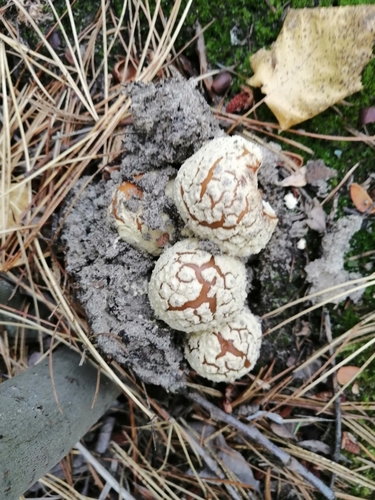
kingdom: Fungi
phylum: Basidiomycota
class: Agaricomycetes
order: Agaricales
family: Amanitaceae
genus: Amanita
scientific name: Amanita regalis
